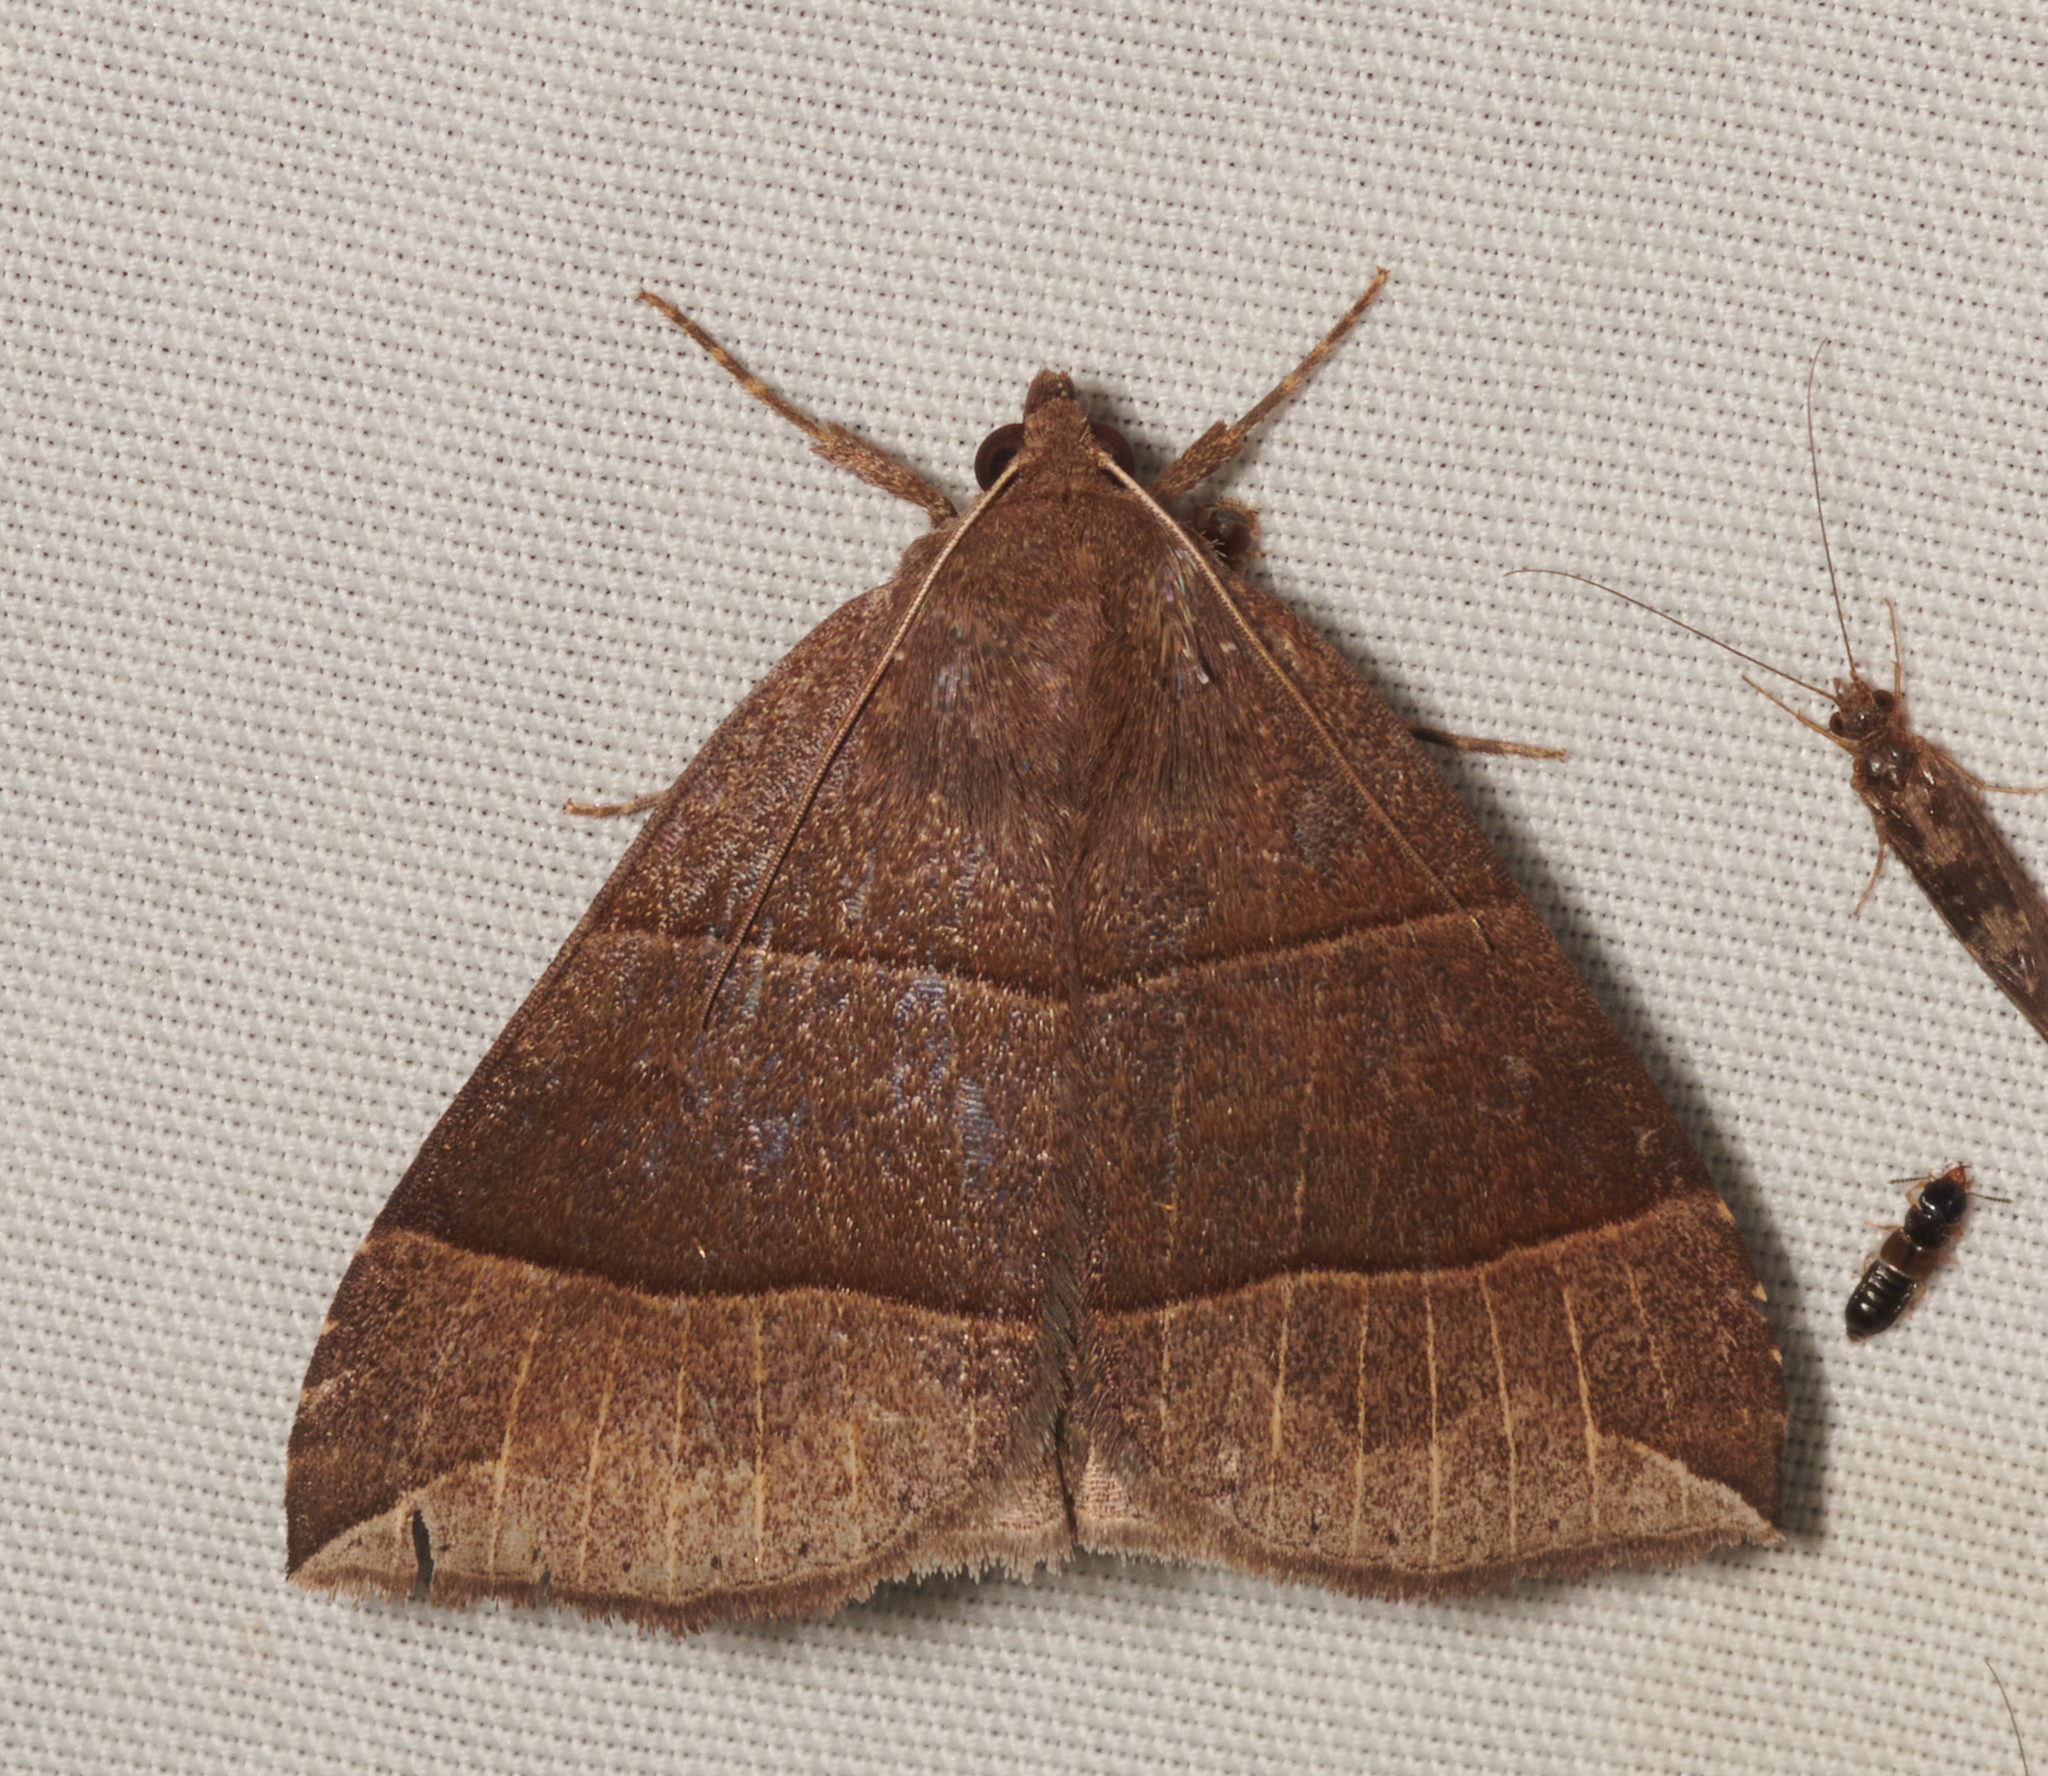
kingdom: Animalia
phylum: Arthropoda
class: Insecta
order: Lepidoptera
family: Erebidae
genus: Parallelia
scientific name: Parallelia bistriaris
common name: Maple looper moth
